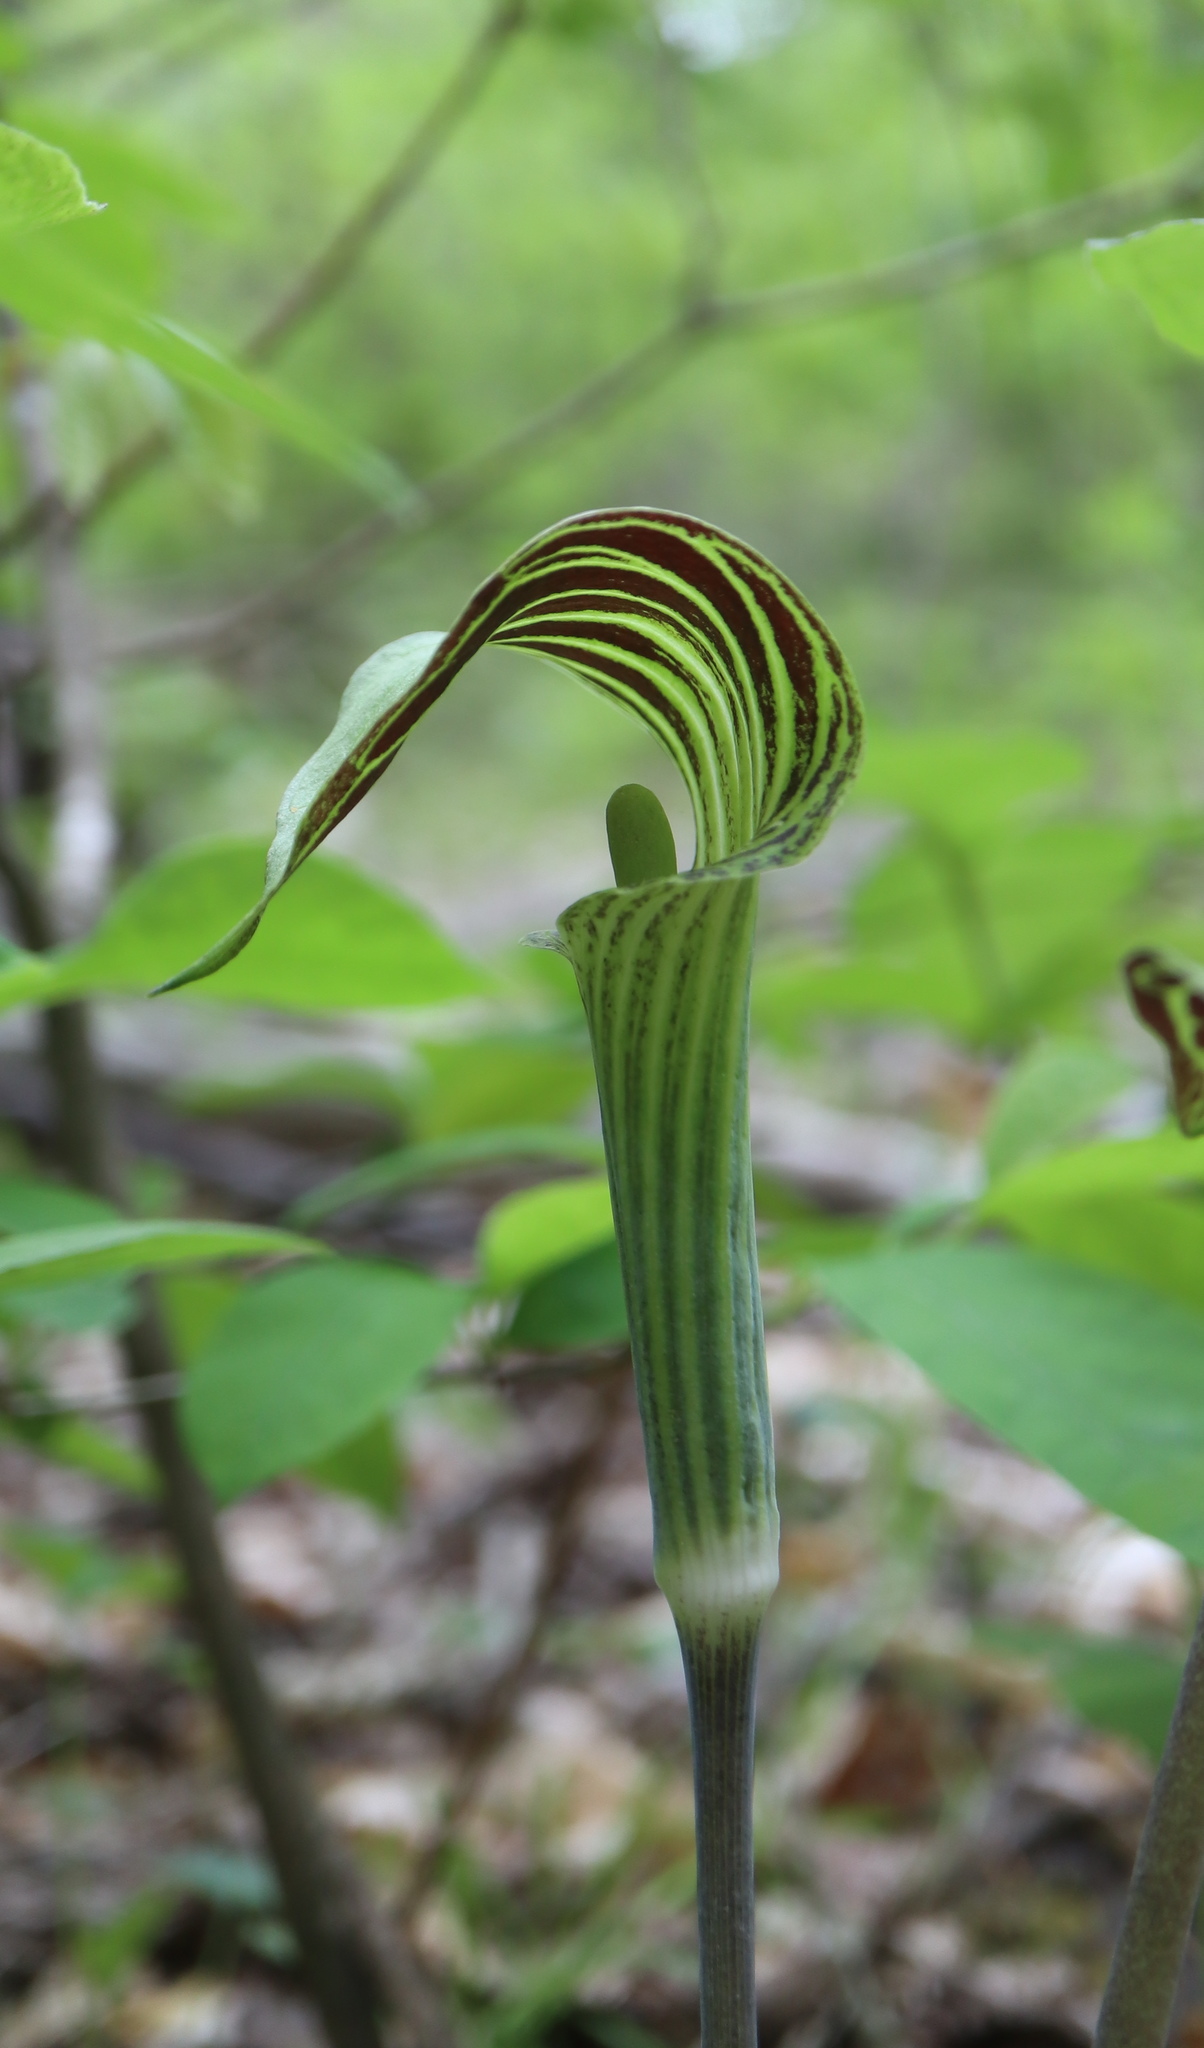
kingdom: Plantae
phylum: Tracheophyta
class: Liliopsida
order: Alismatales
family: Araceae
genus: Arisaema
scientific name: Arisaema triphyllum
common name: Jack-in-the-pulpit
